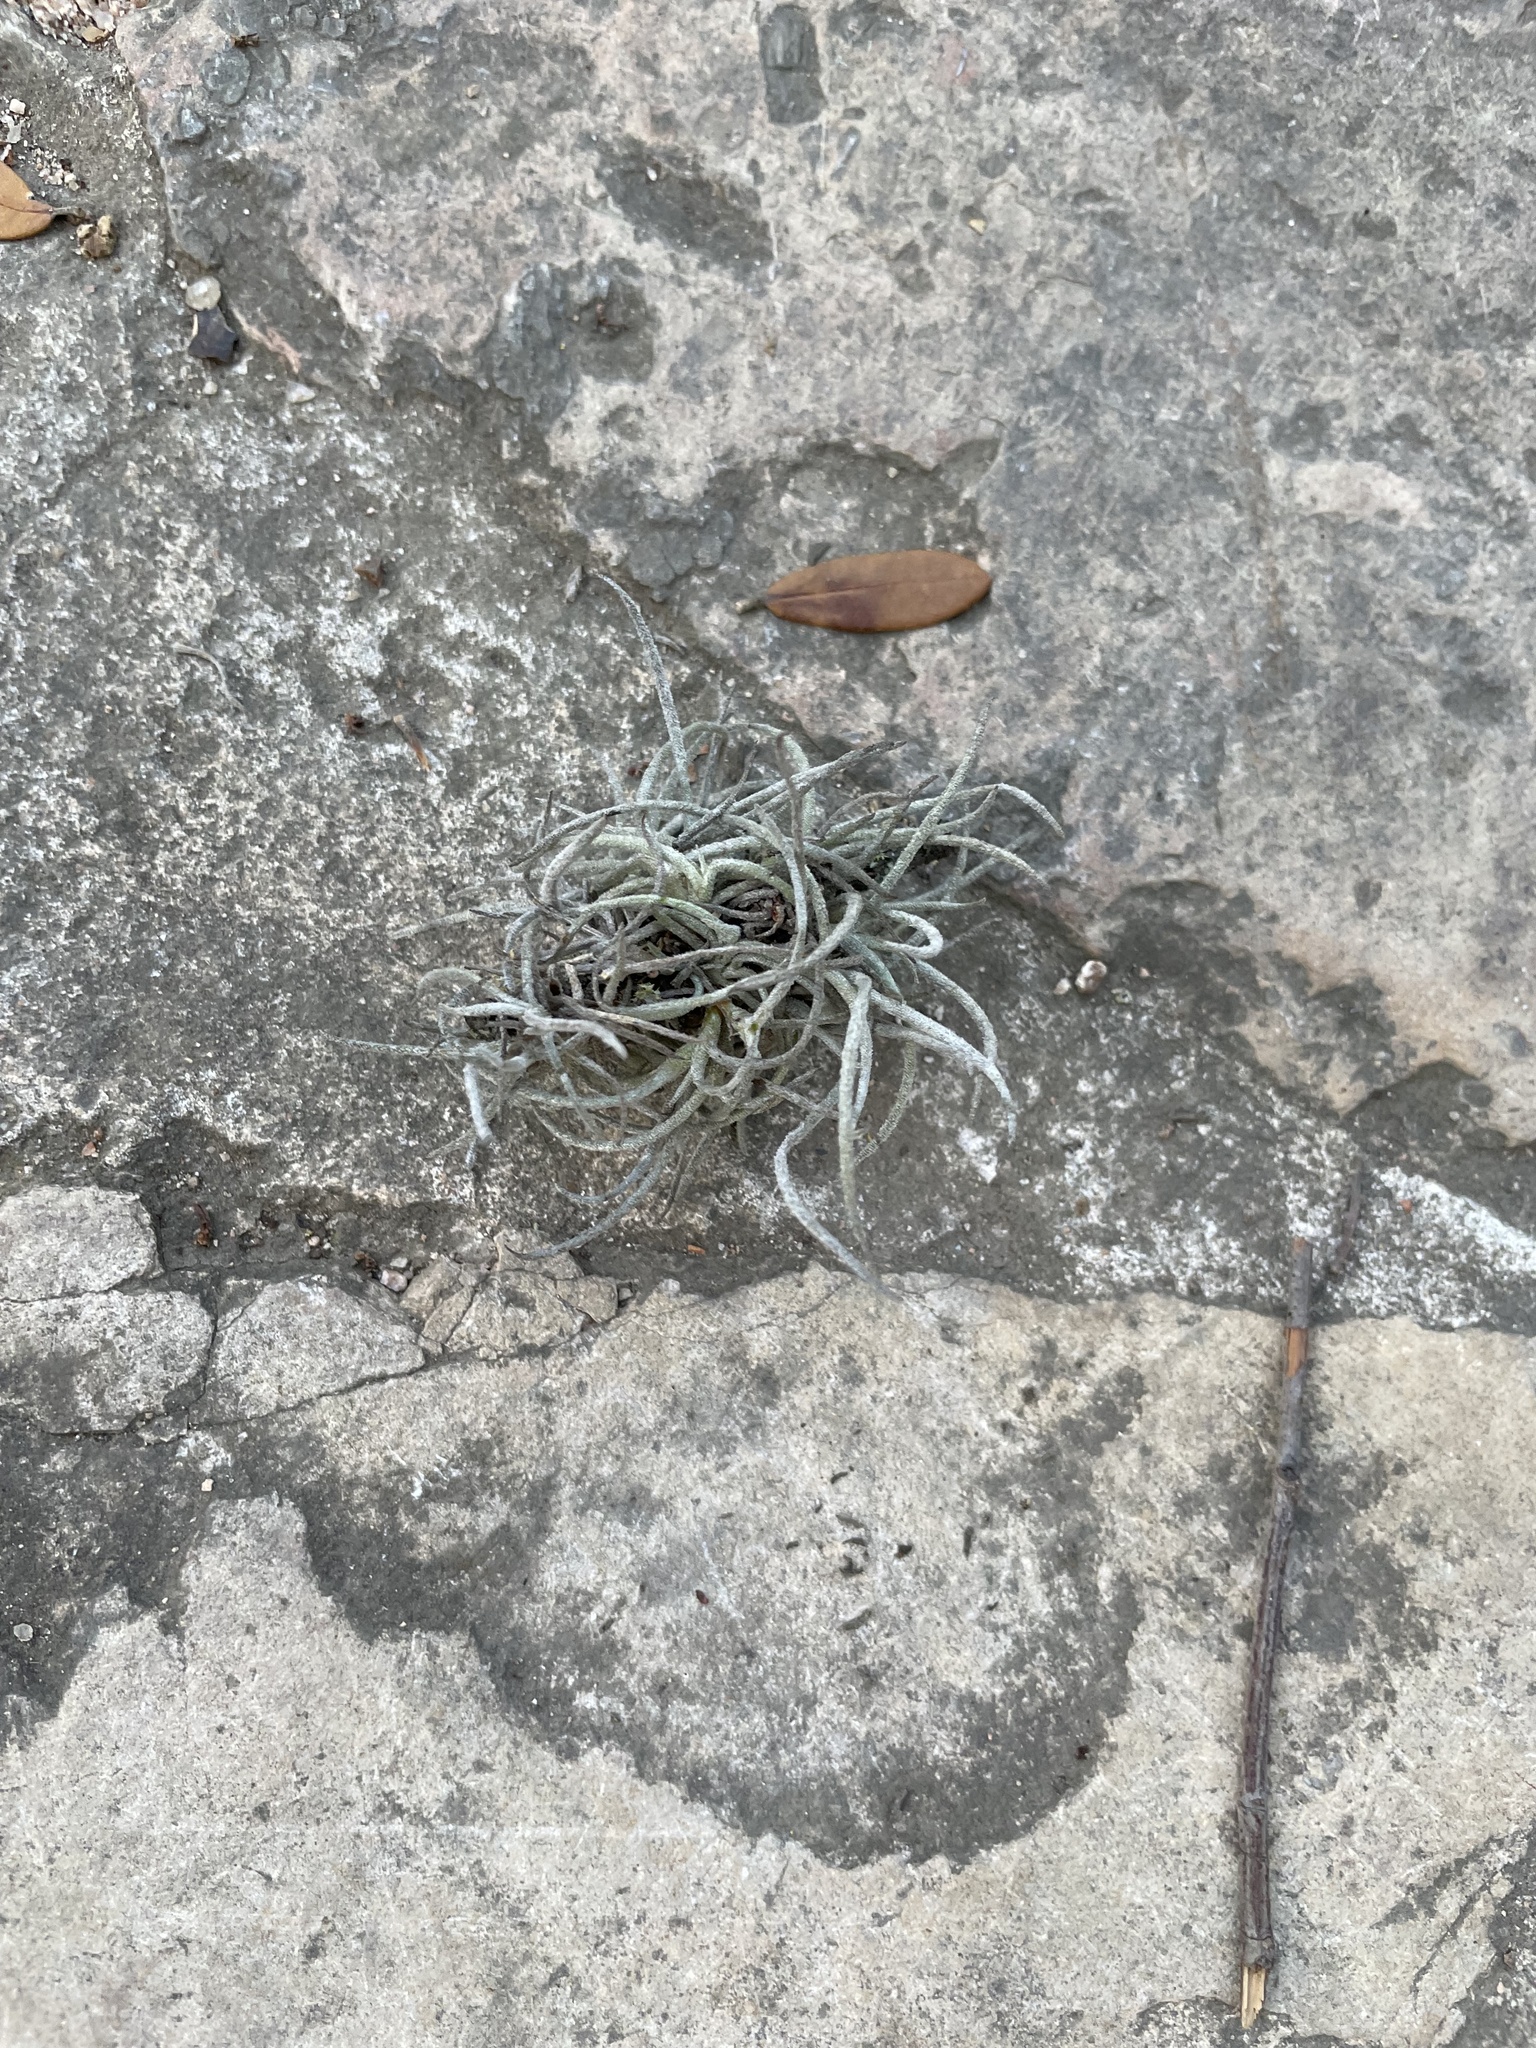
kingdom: Plantae
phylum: Tracheophyta
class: Liliopsida
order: Poales
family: Bromeliaceae
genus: Tillandsia
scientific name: Tillandsia recurvata
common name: Small ballmoss
